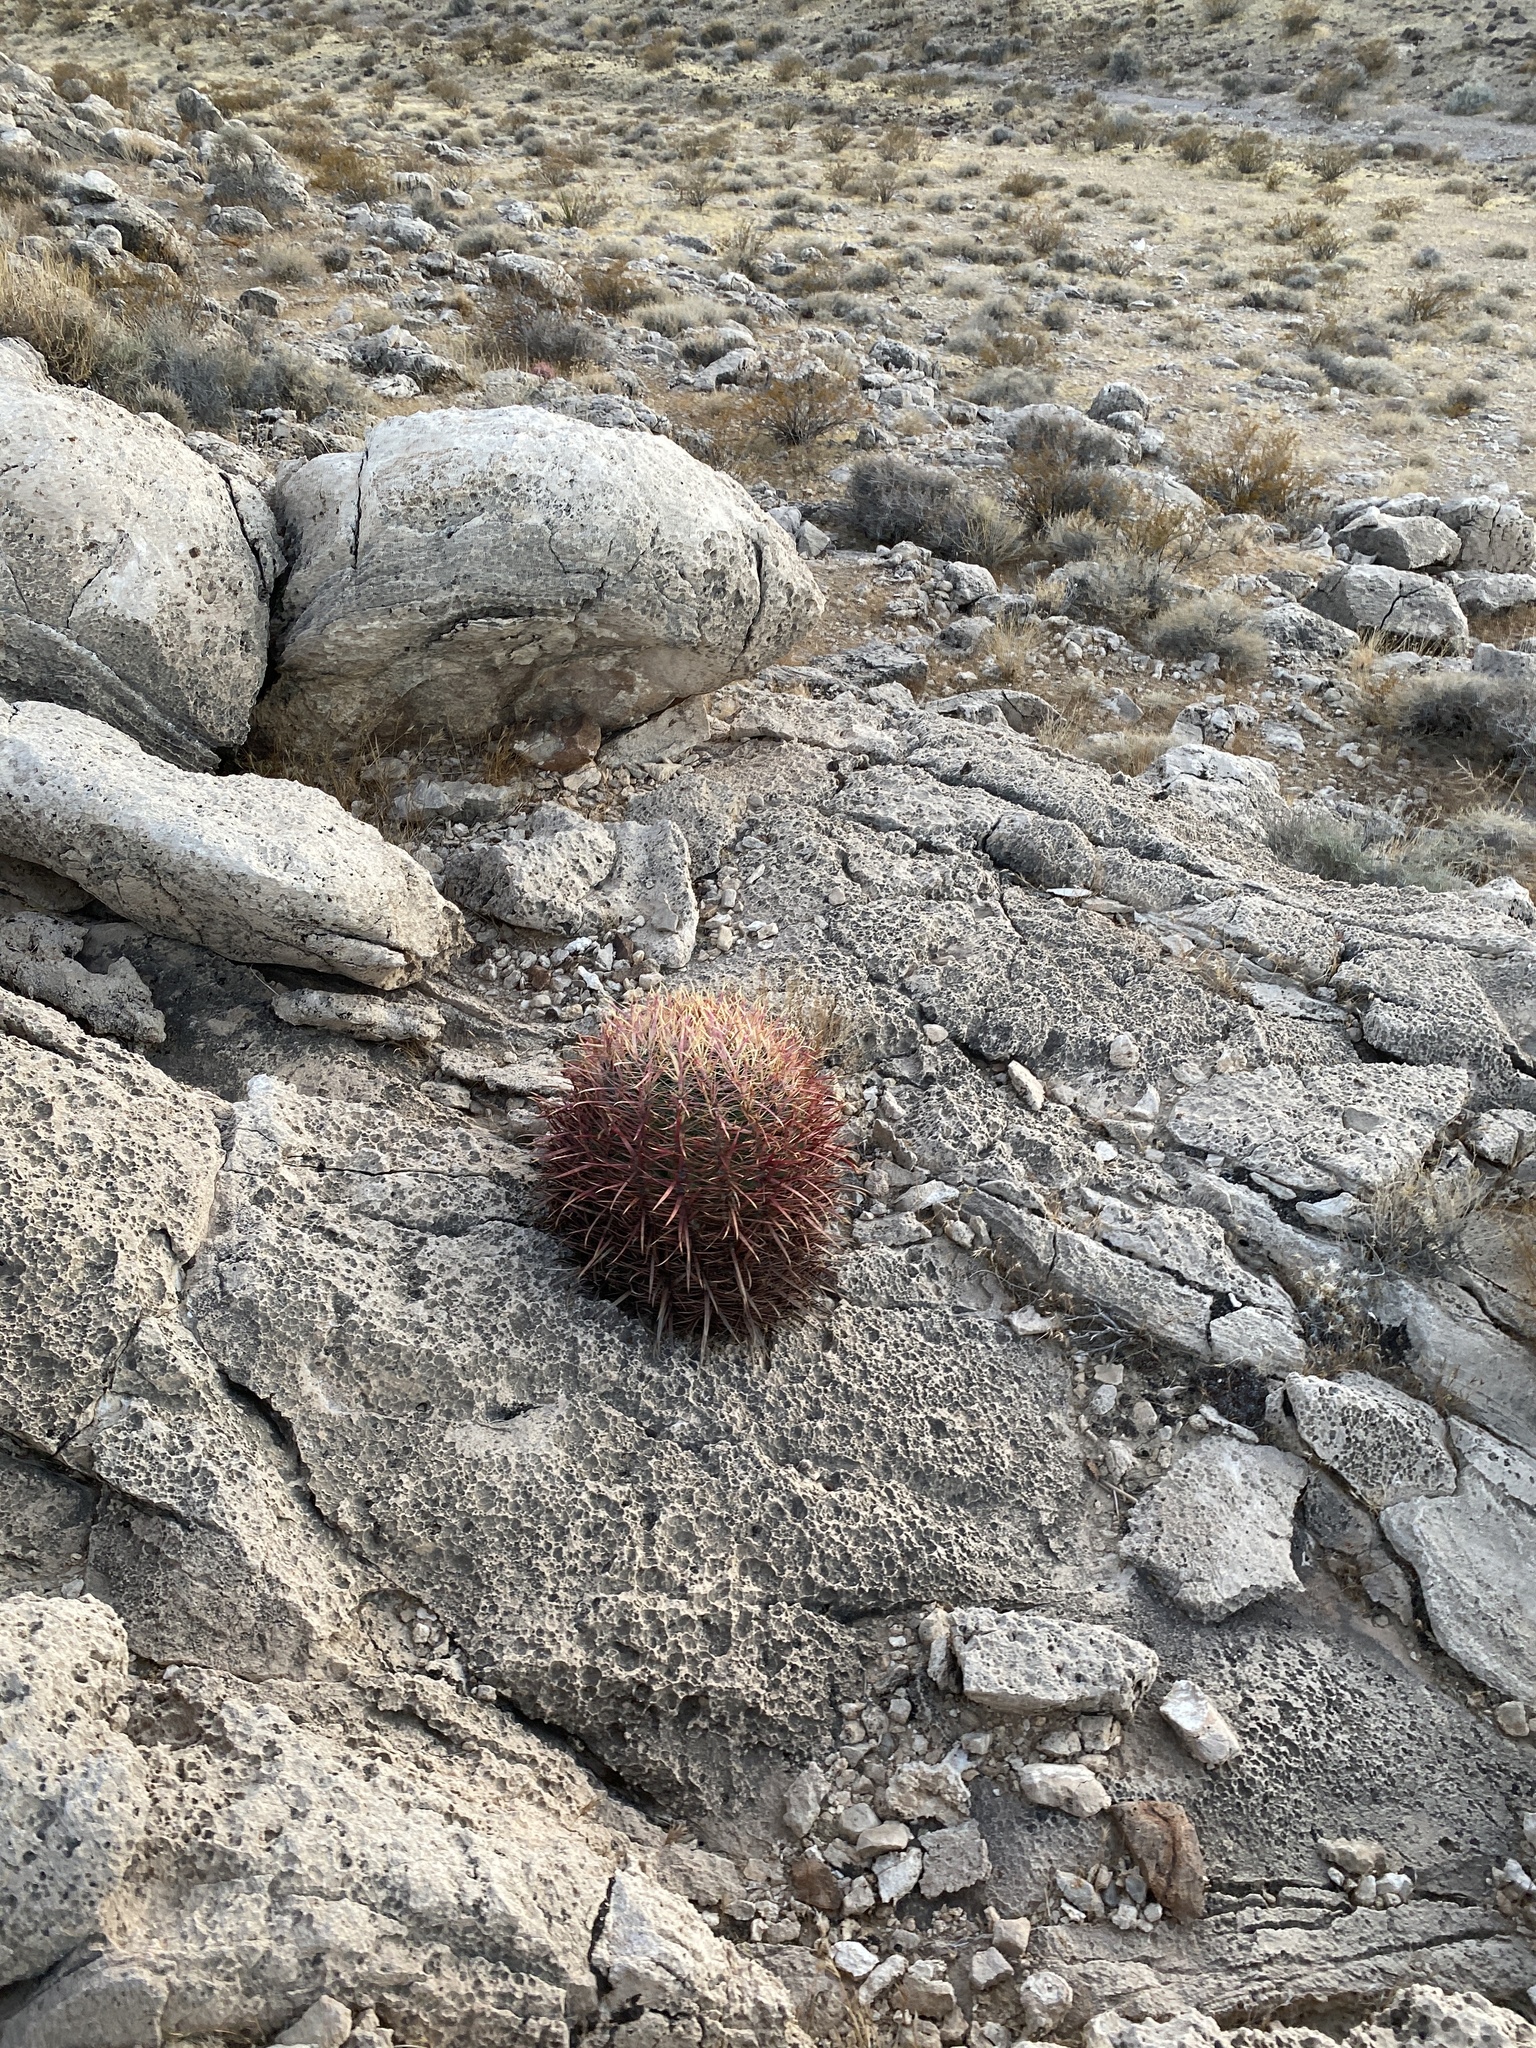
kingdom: Plantae
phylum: Tracheophyta
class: Magnoliopsida
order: Caryophyllales
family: Cactaceae
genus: Ferocactus
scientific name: Ferocactus cylindraceus
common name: California barrel cactus
